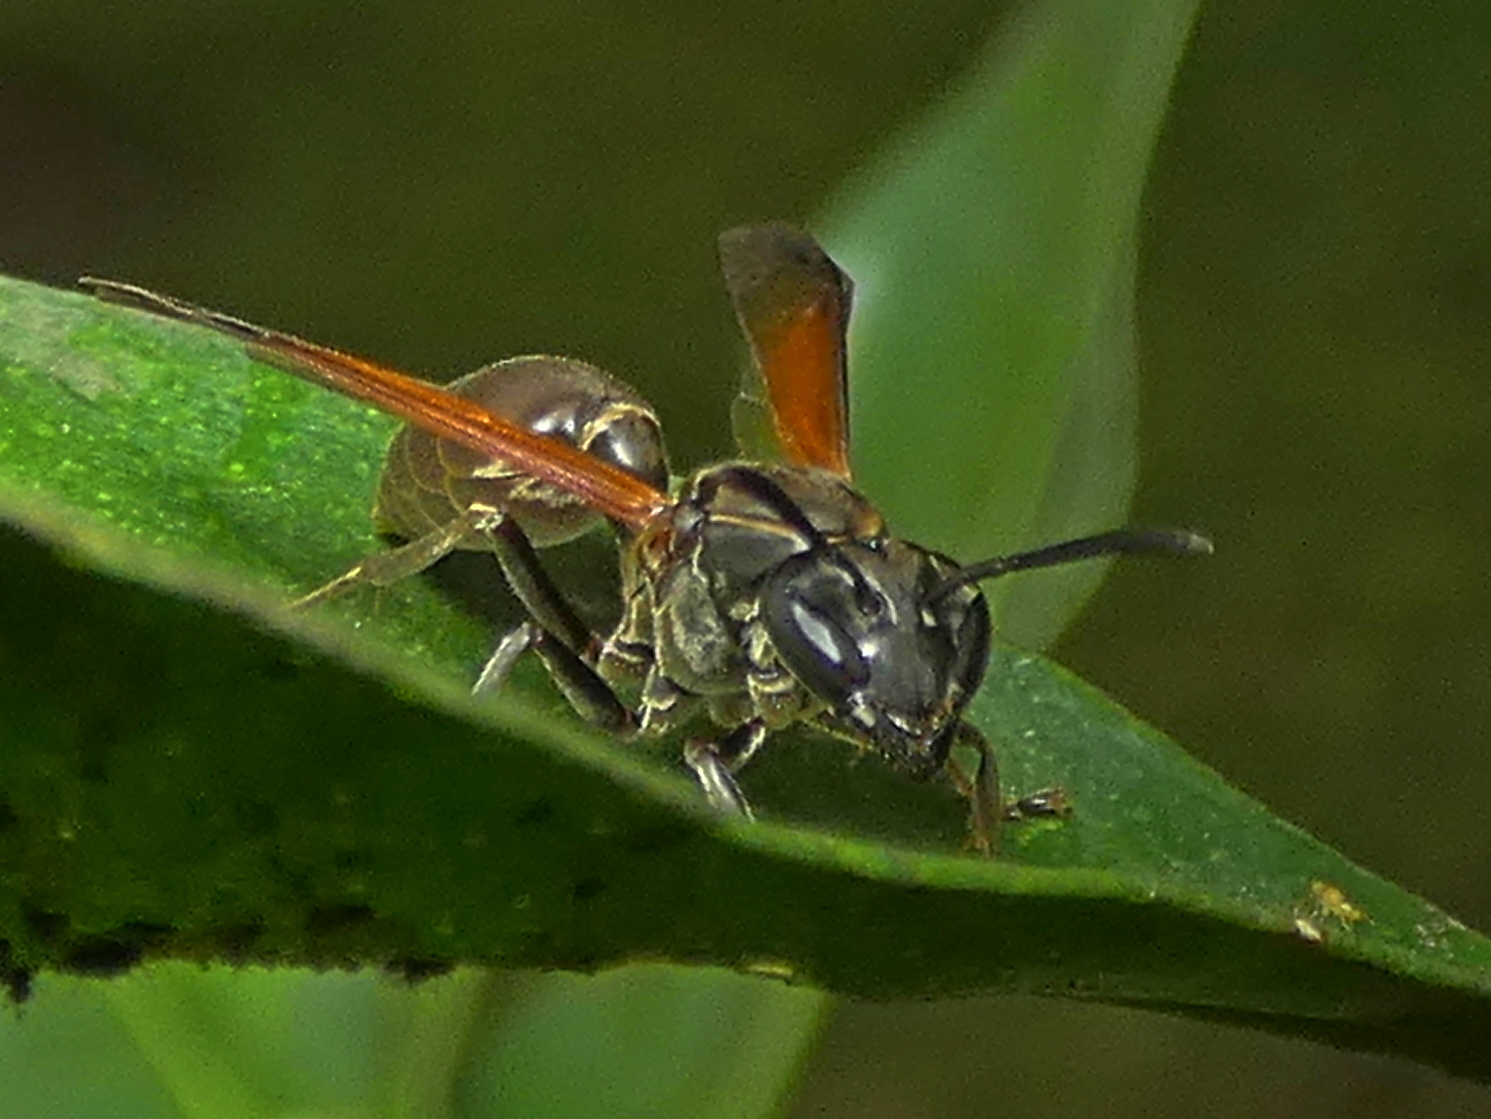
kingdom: Animalia
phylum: Arthropoda
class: Insecta
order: Hymenoptera
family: Eumenidae
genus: Polybia
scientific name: Polybia rejecta
